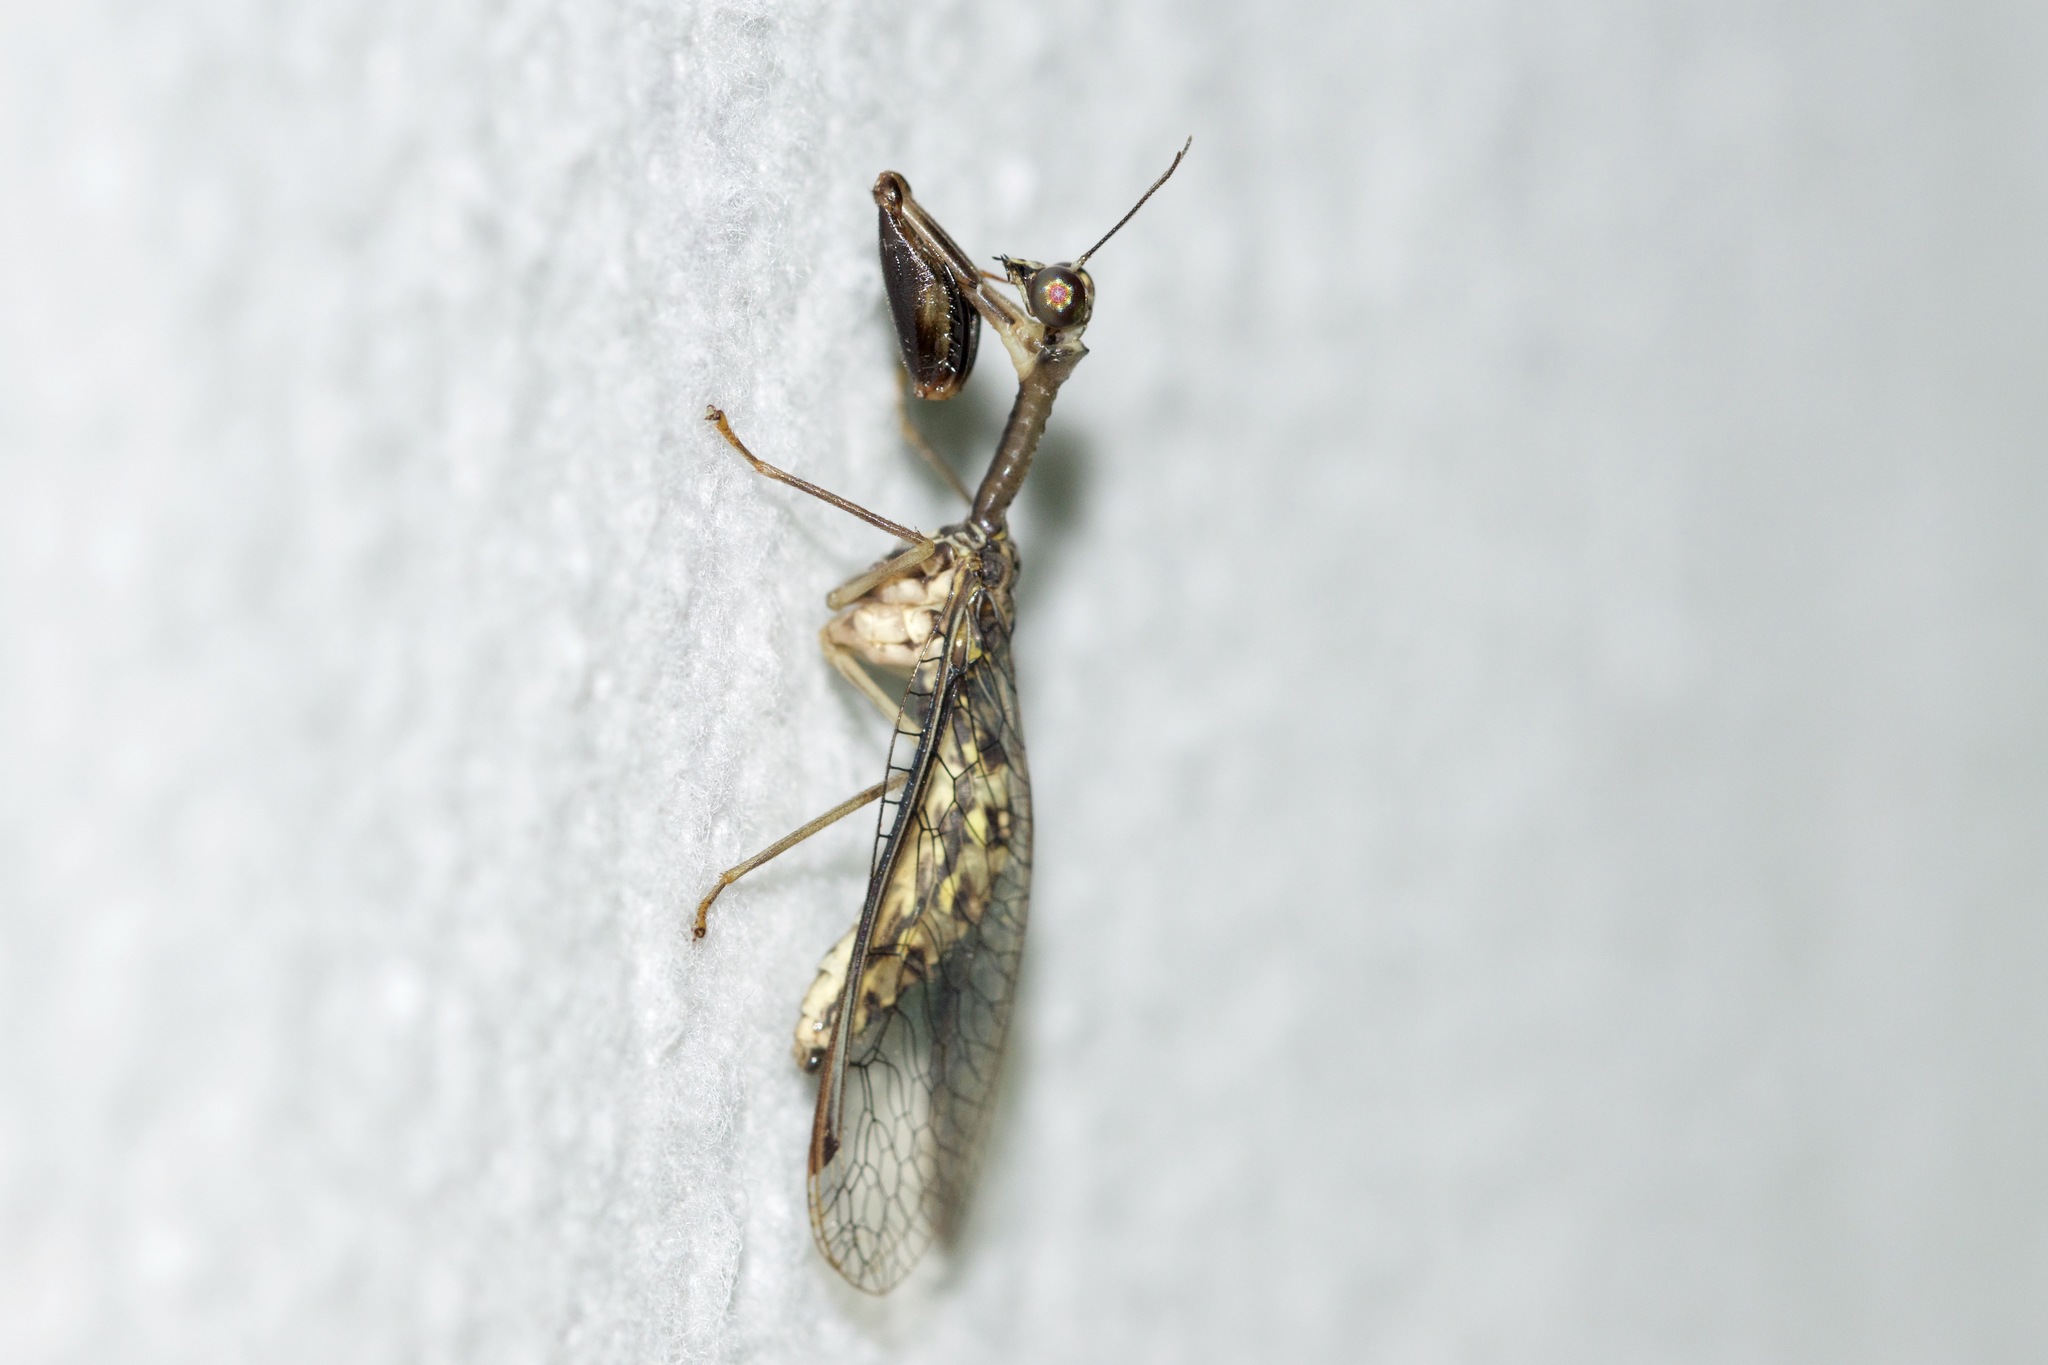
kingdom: Animalia
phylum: Arthropoda
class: Insecta
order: Neuroptera
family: Mantispidae
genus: Dicromantispa
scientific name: Dicromantispa sayi
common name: Say's mantidfly
